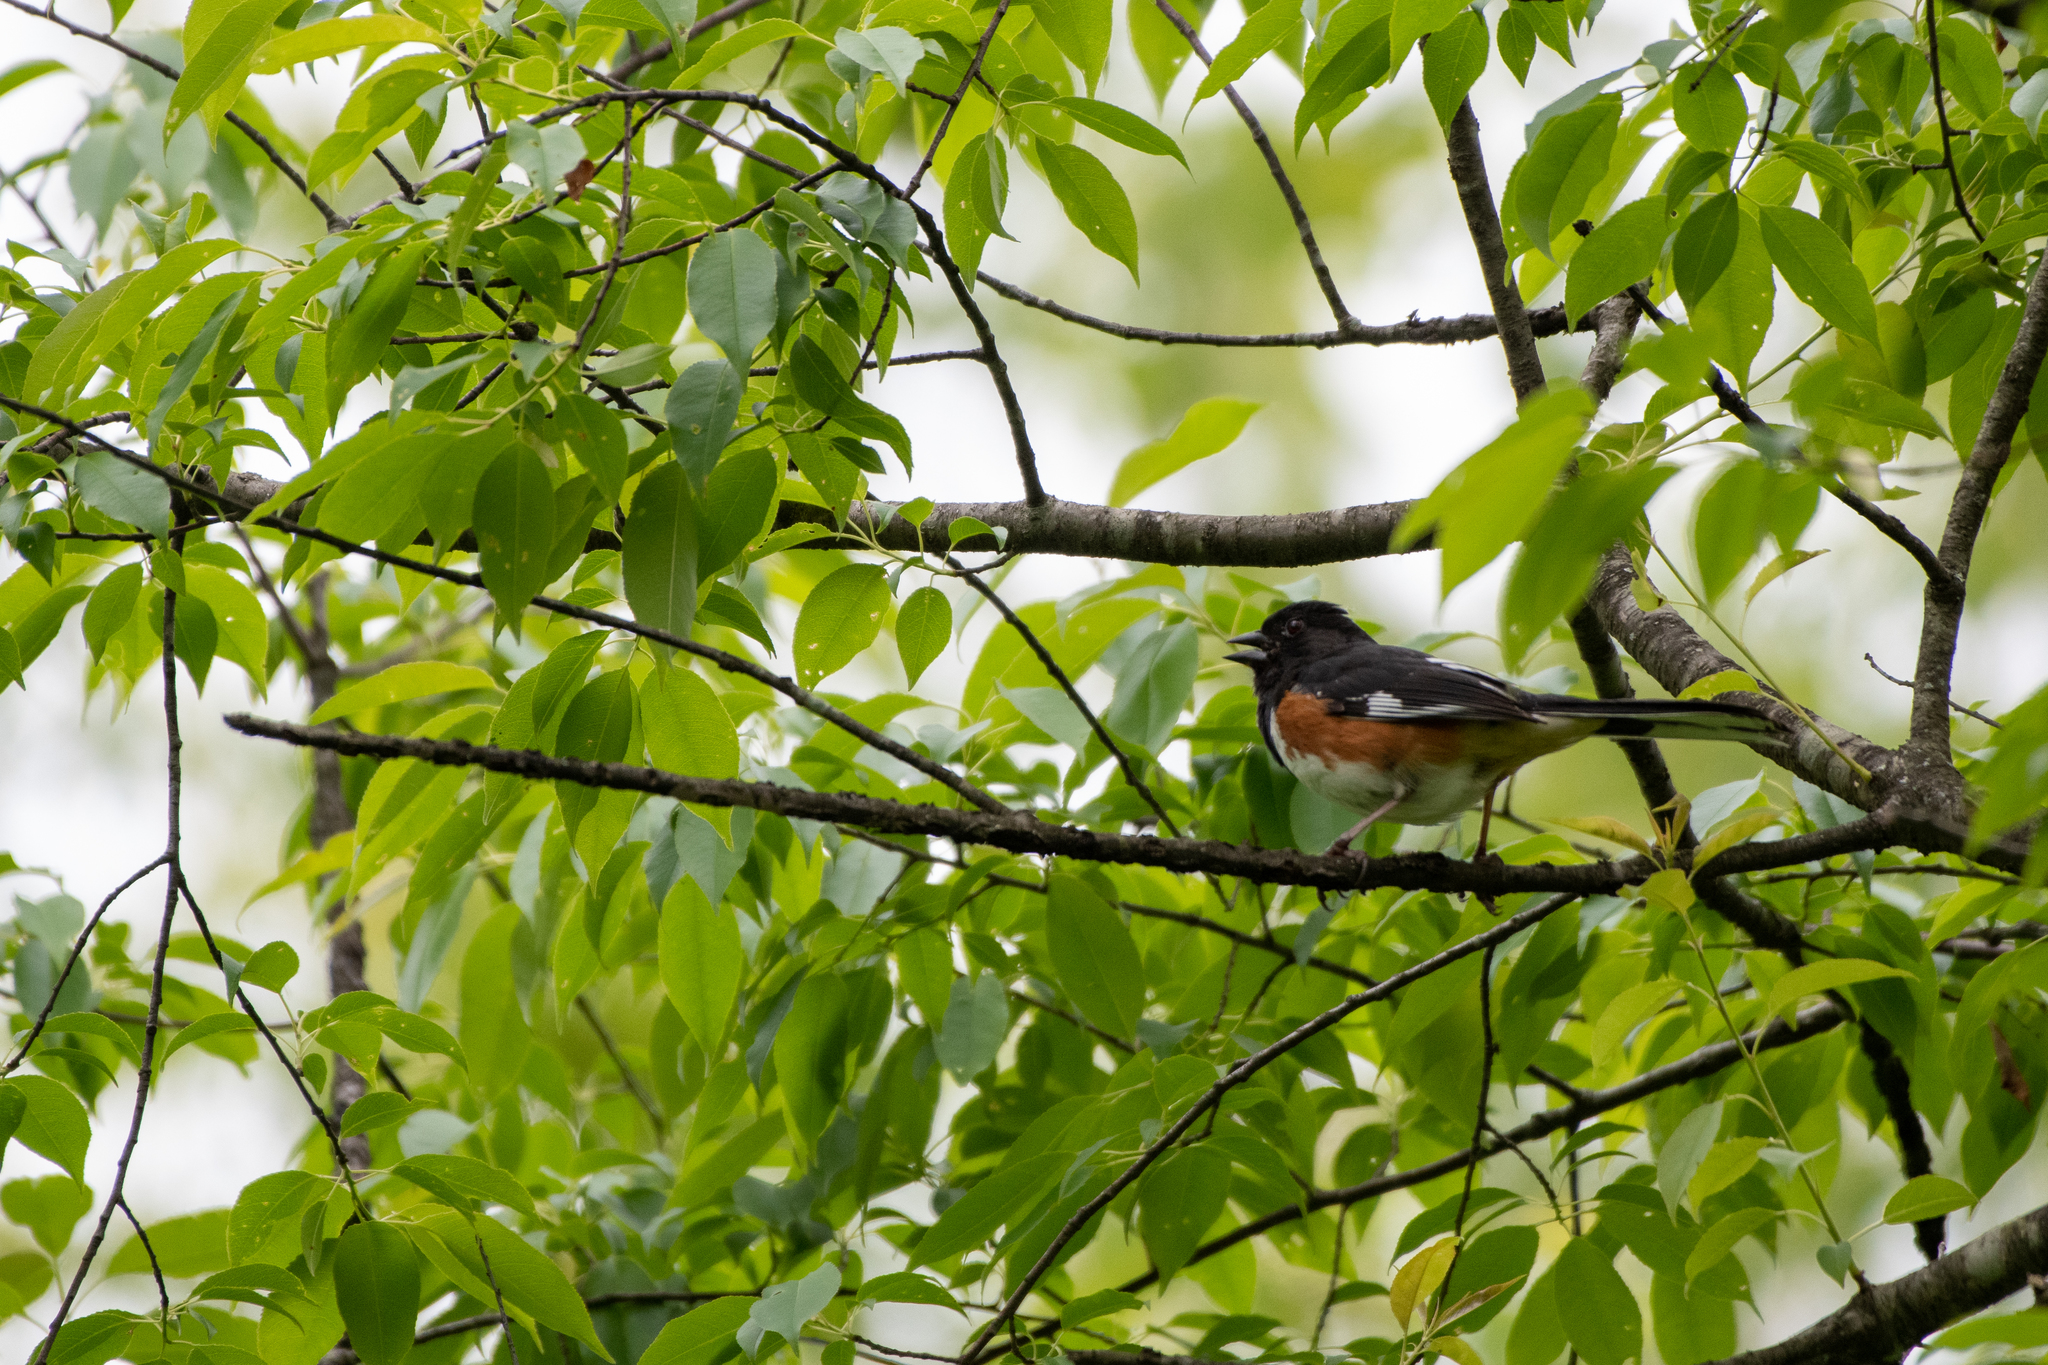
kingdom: Animalia
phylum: Chordata
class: Aves
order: Passeriformes
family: Passerellidae
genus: Pipilo
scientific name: Pipilo erythrophthalmus
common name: Eastern towhee
